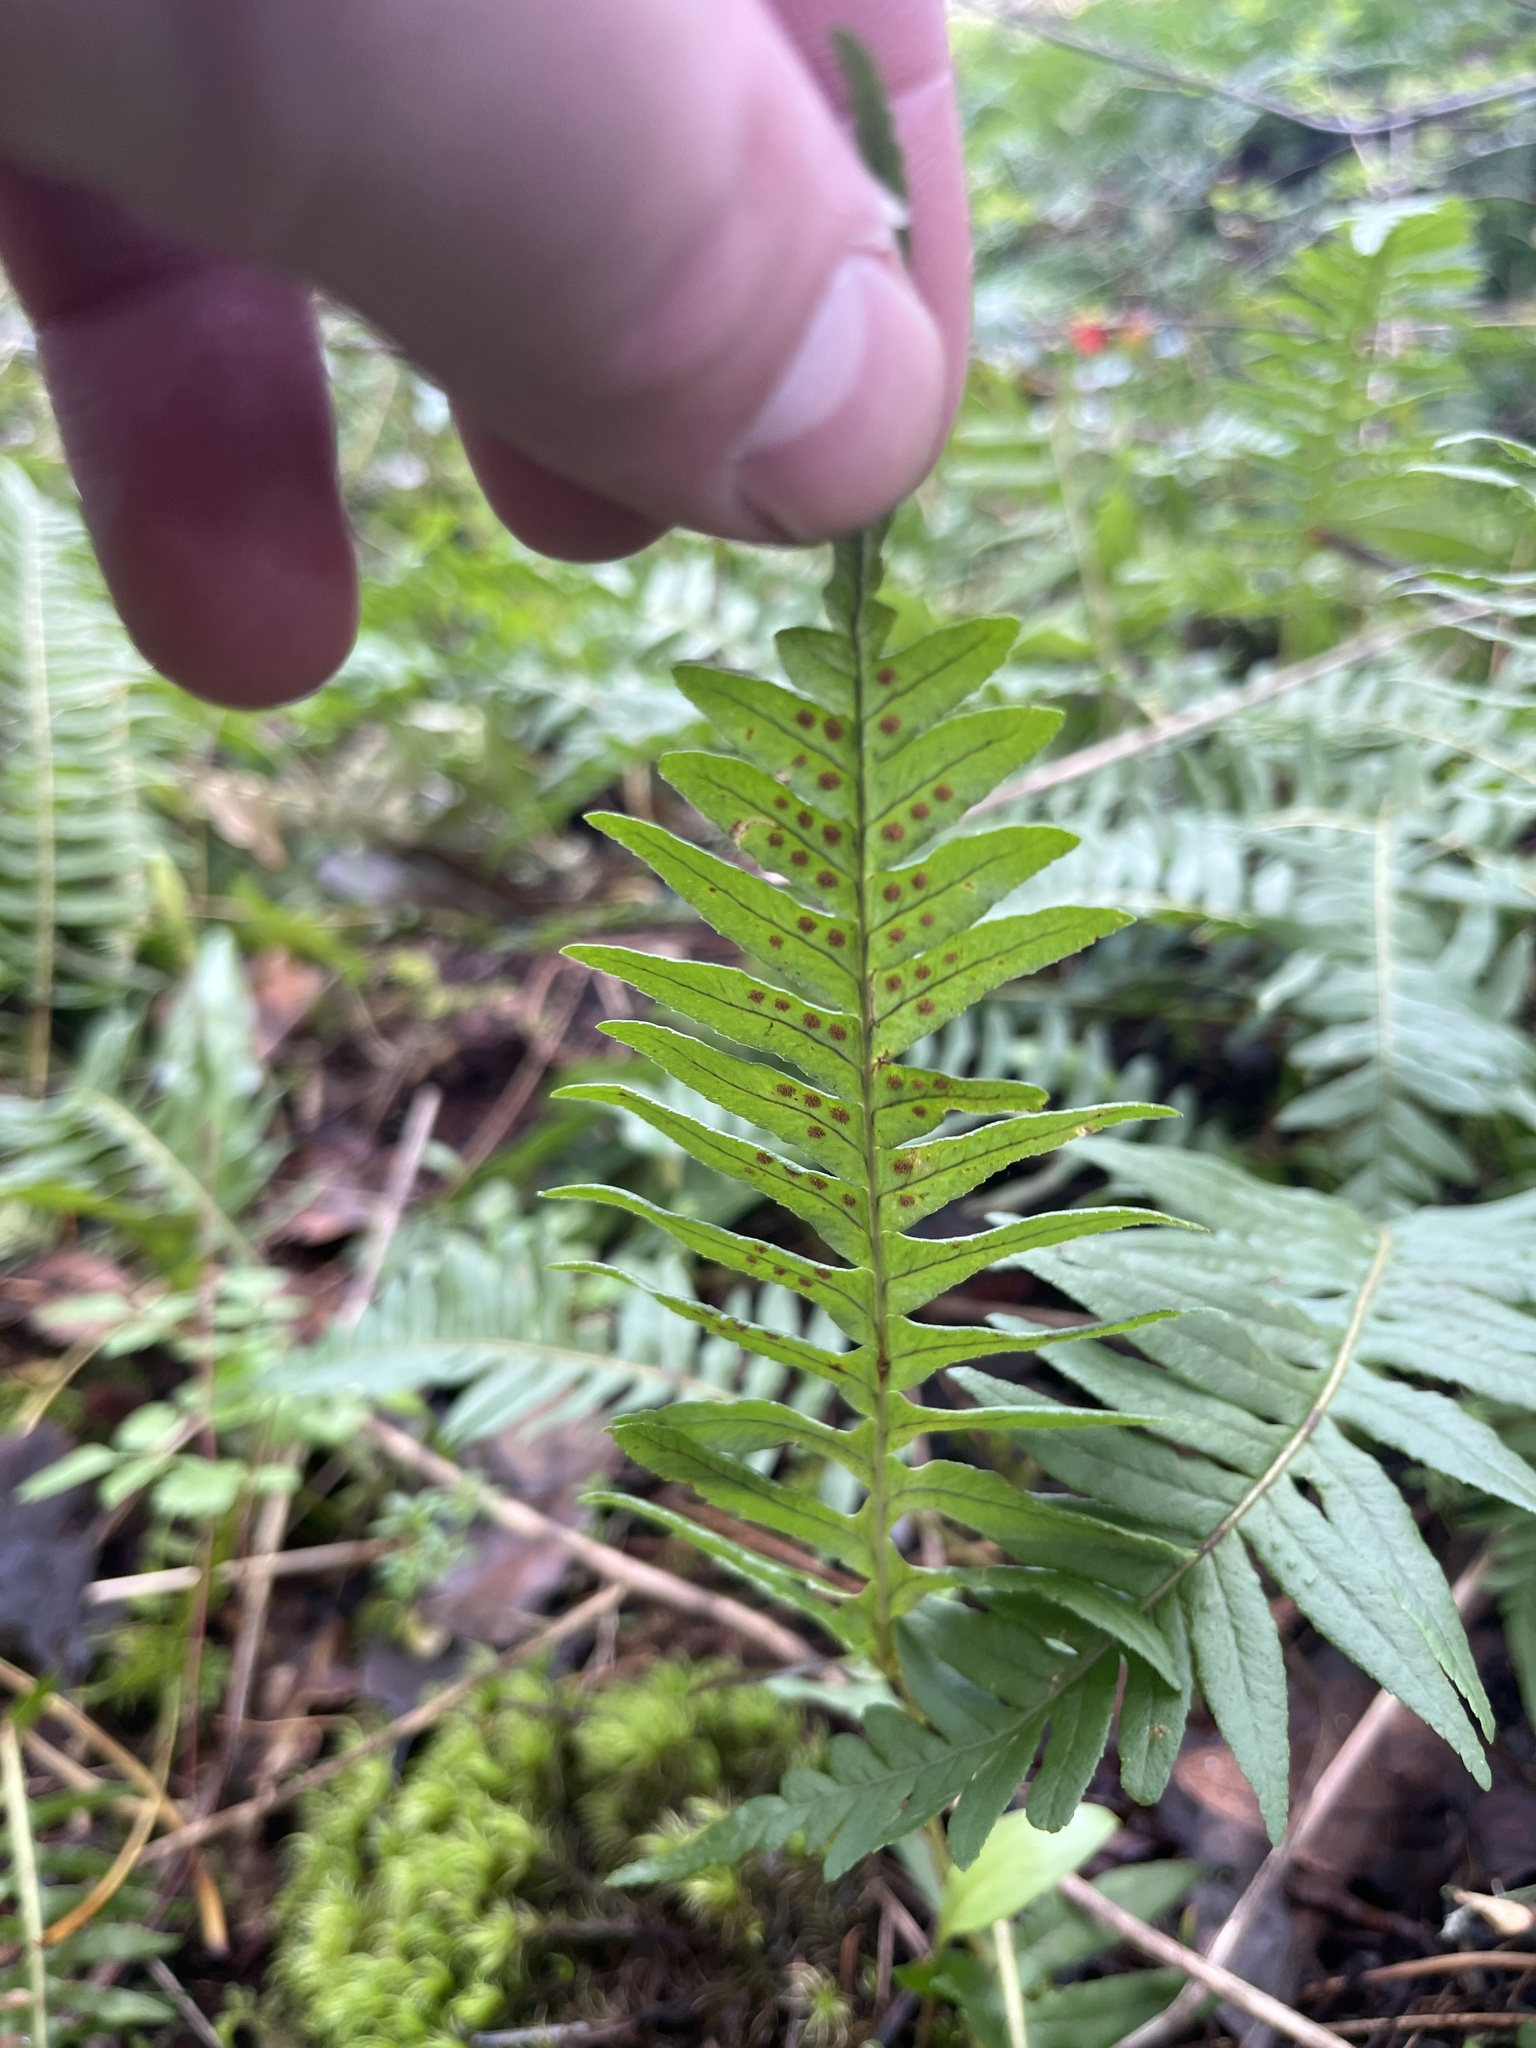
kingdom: Plantae
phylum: Tracheophyta
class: Polypodiopsida
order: Polypodiales
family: Polypodiaceae
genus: Polypodium
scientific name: Polypodium glycyrrhiza
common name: Licorice fern
